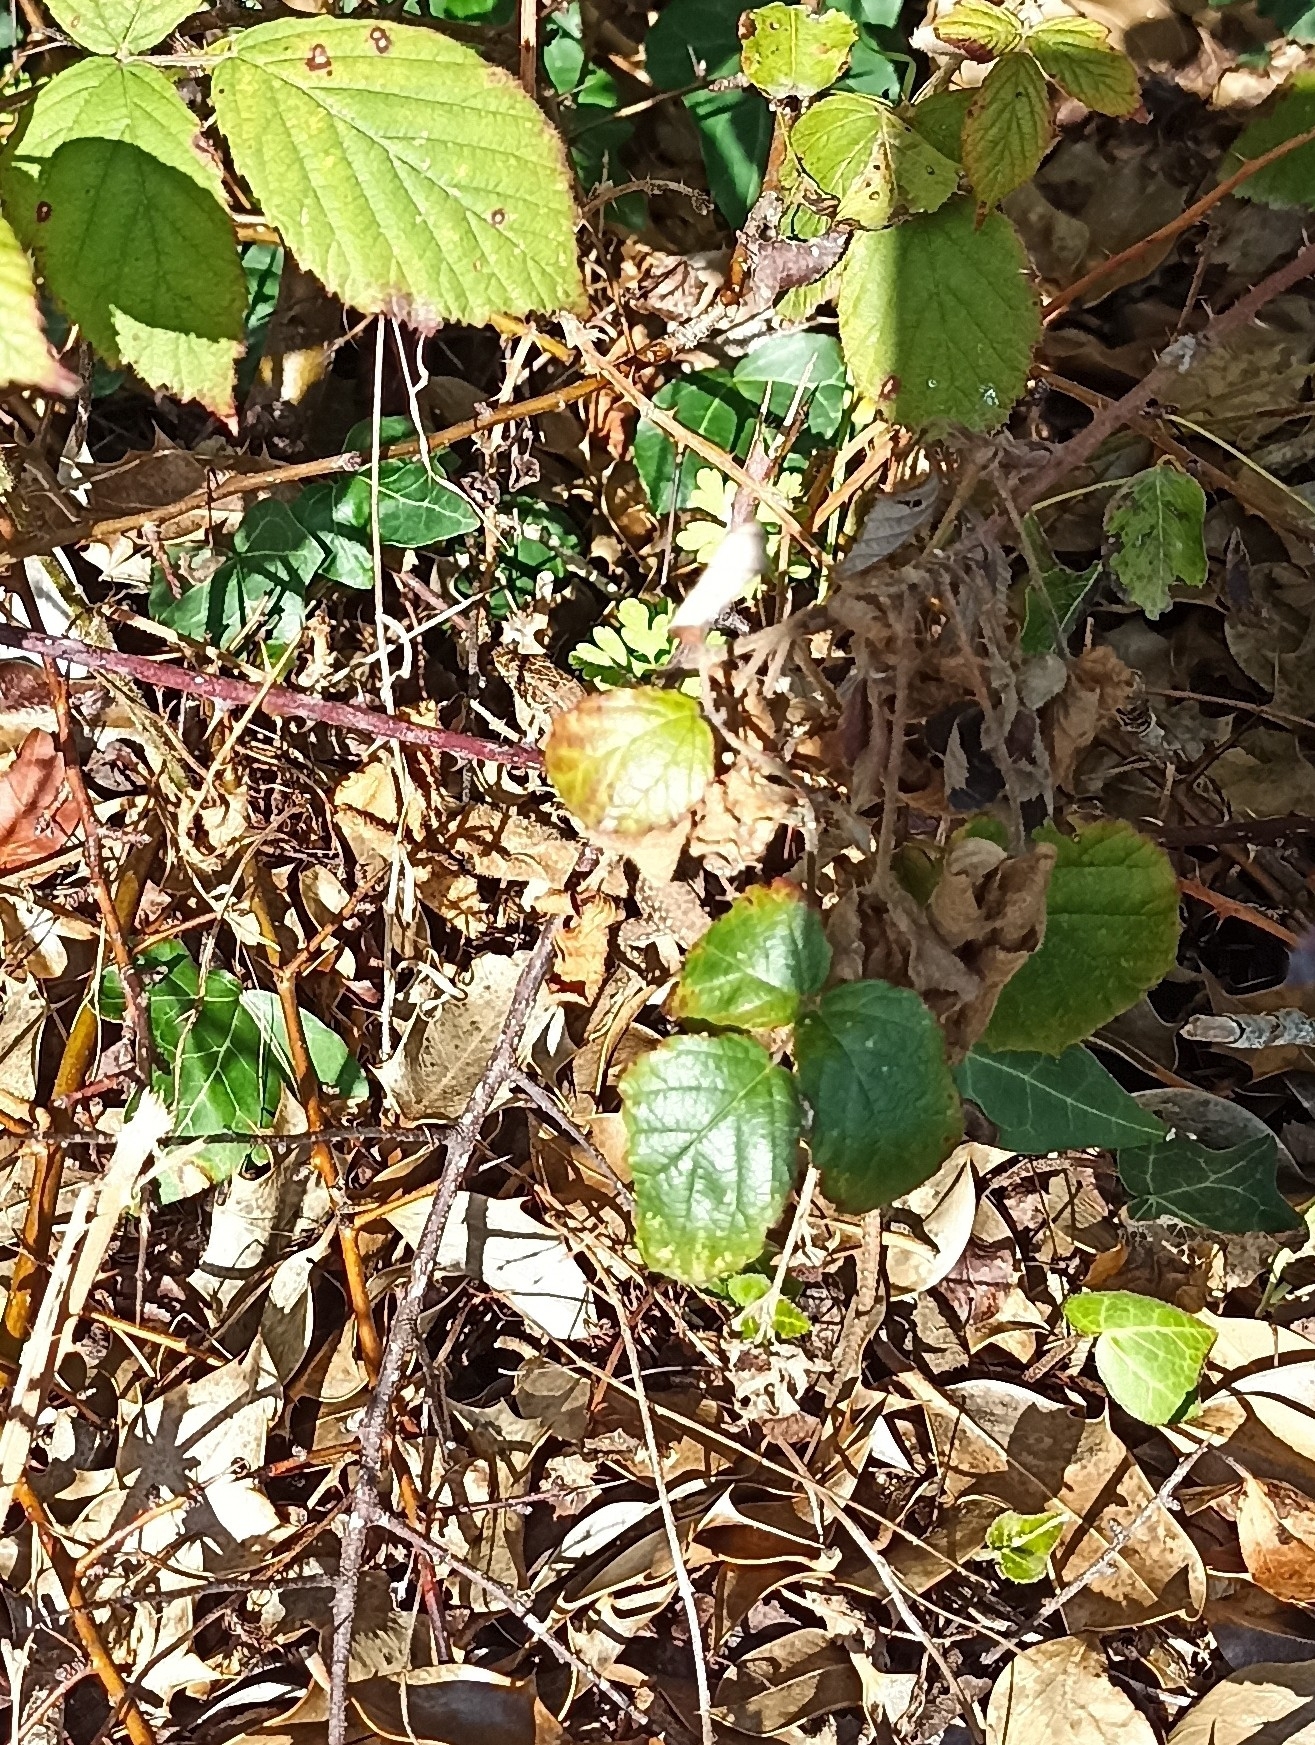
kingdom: Animalia
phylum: Chordata
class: Squamata
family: Lacertidae
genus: Podarcis
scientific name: Podarcis muralis
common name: Common wall lizard
